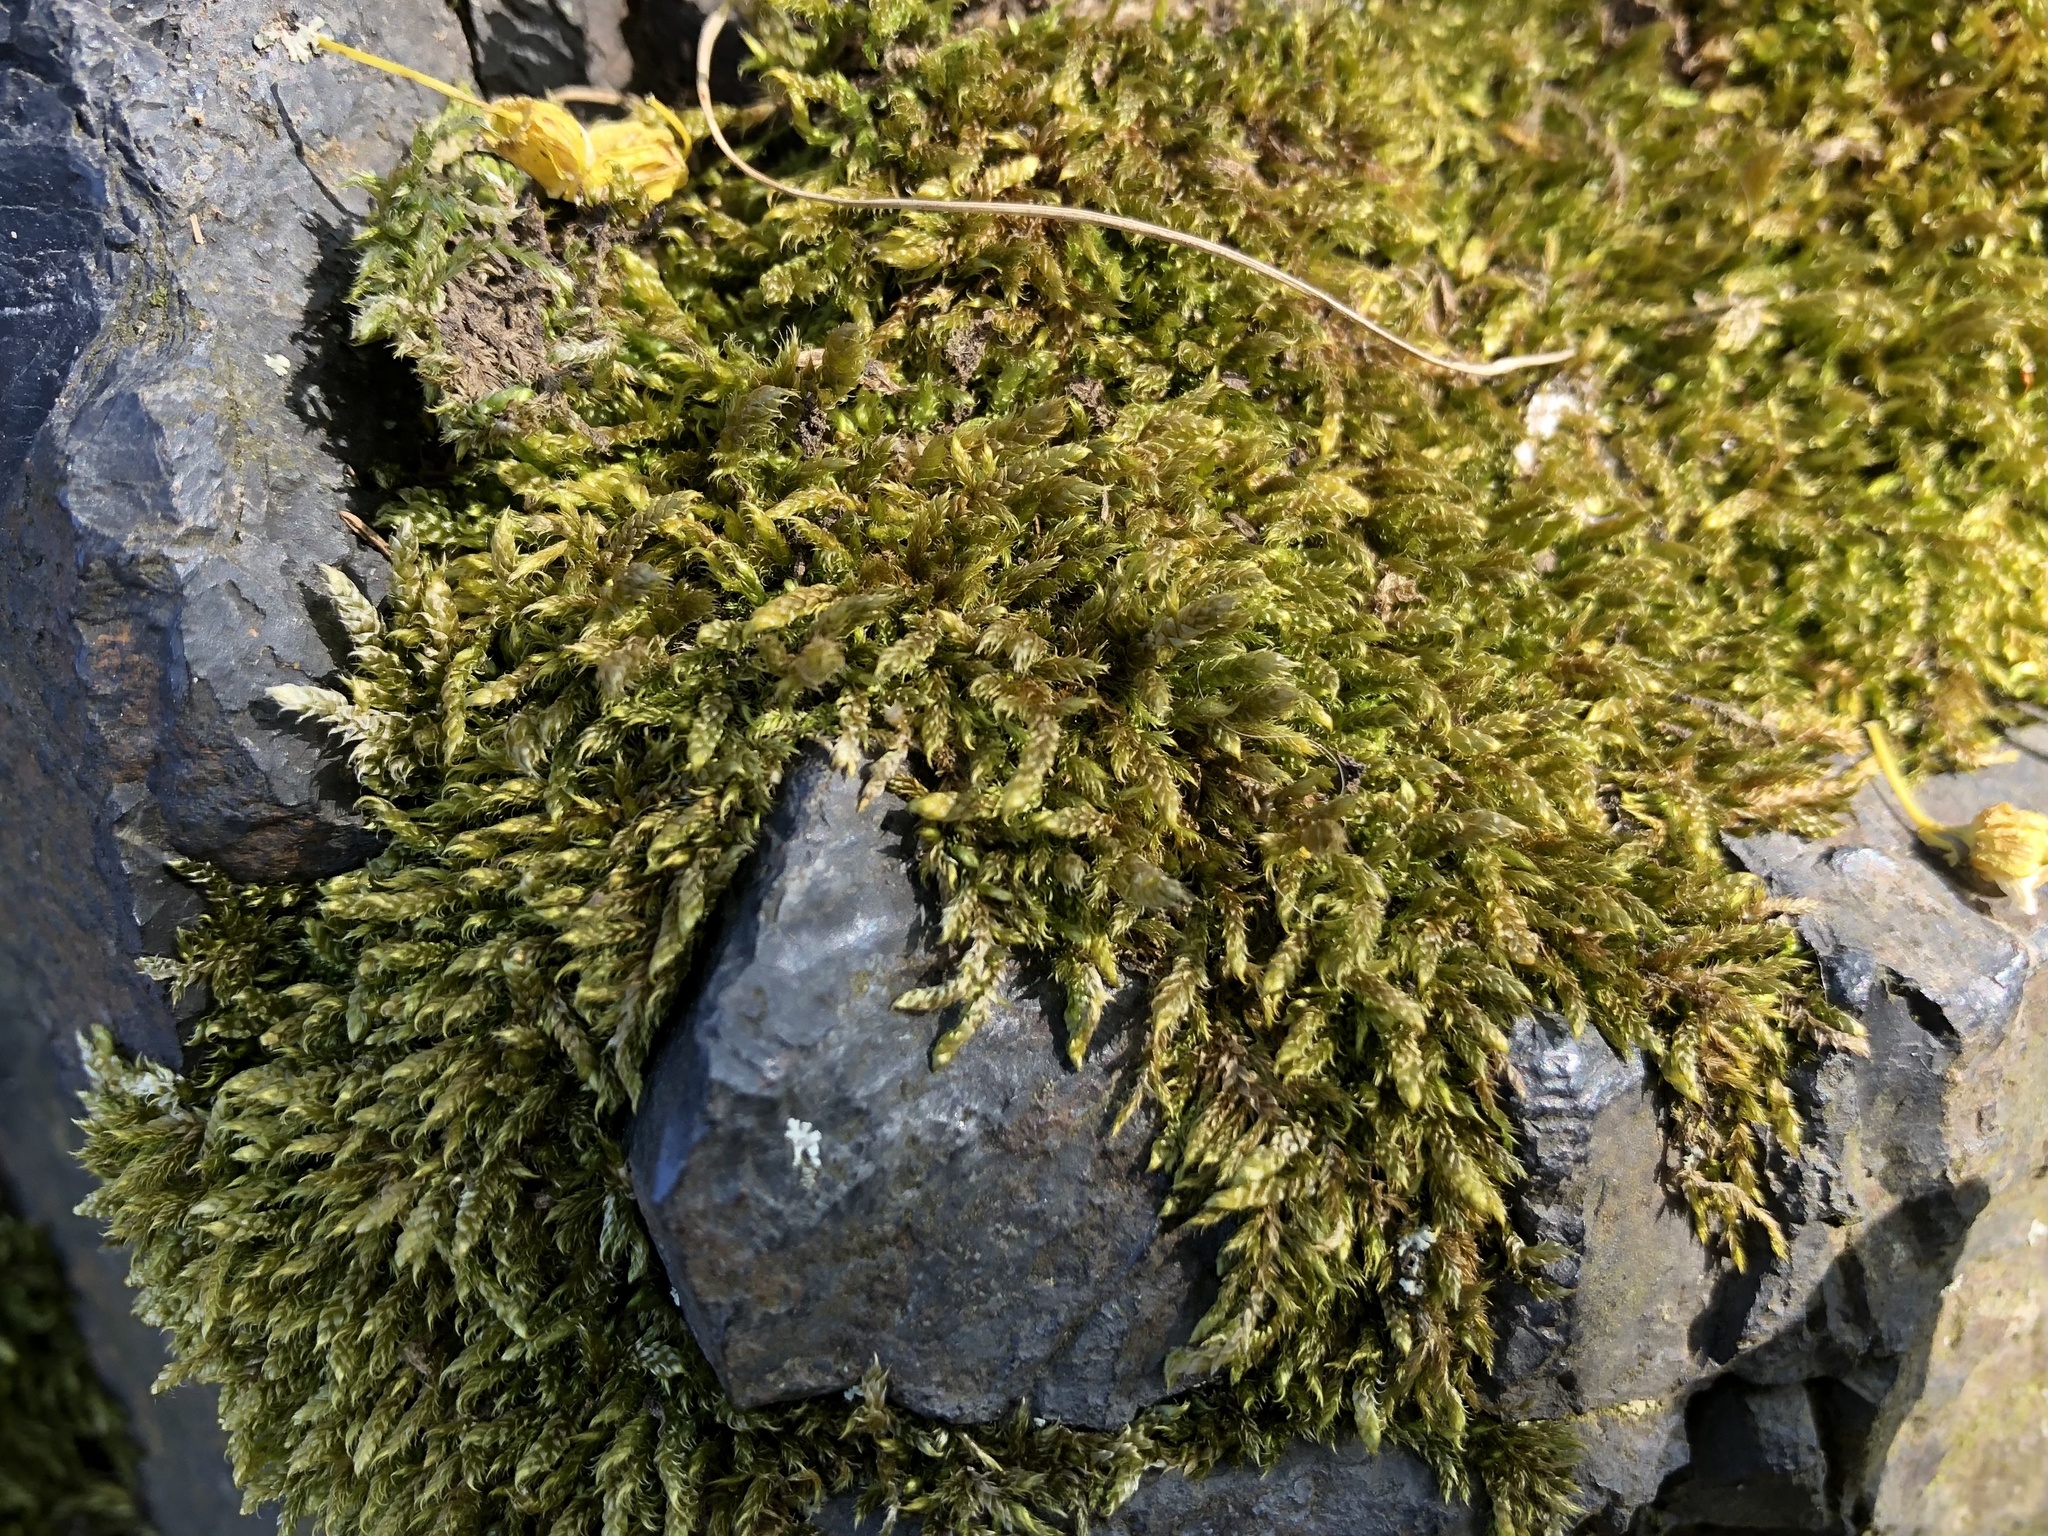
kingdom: Plantae
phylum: Bryophyta
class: Bryopsida
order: Hypnales
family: Hypnaceae
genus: Hypnum
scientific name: Hypnum cupressiforme
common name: Cypress-leaved plait-moss
